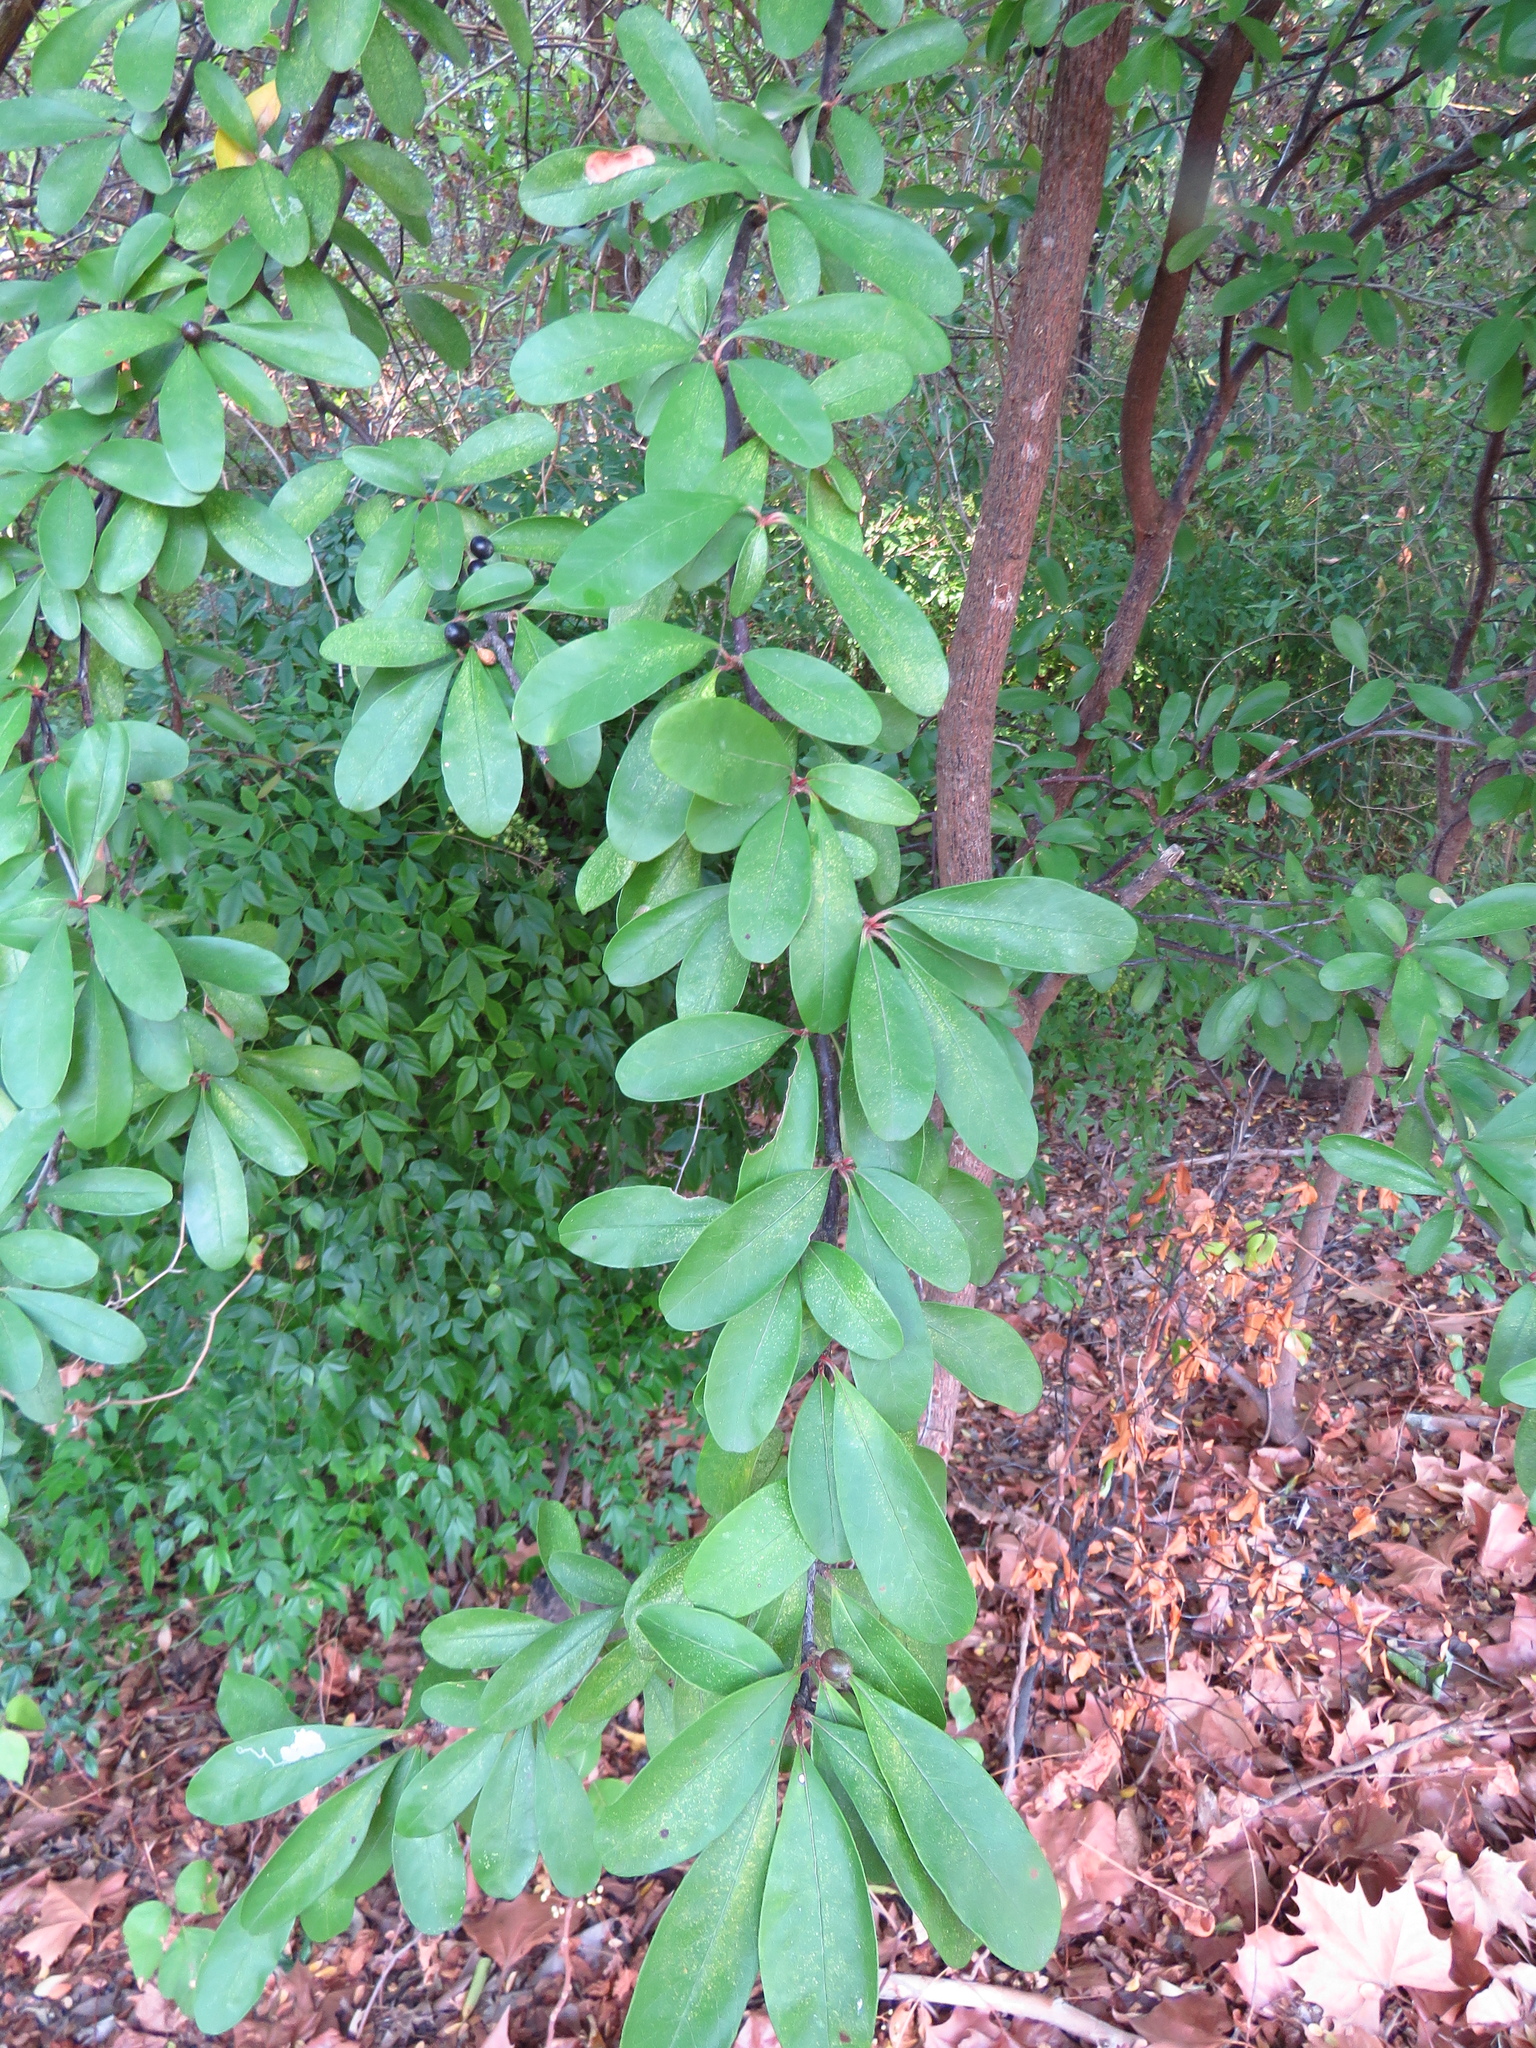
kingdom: Plantae
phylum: Tracheophyta
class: Magnoliopsida
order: Ericales
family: Sapotaceae
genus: Sideroxylon
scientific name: Sideroxylon lanuginosum
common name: Chittamwood
